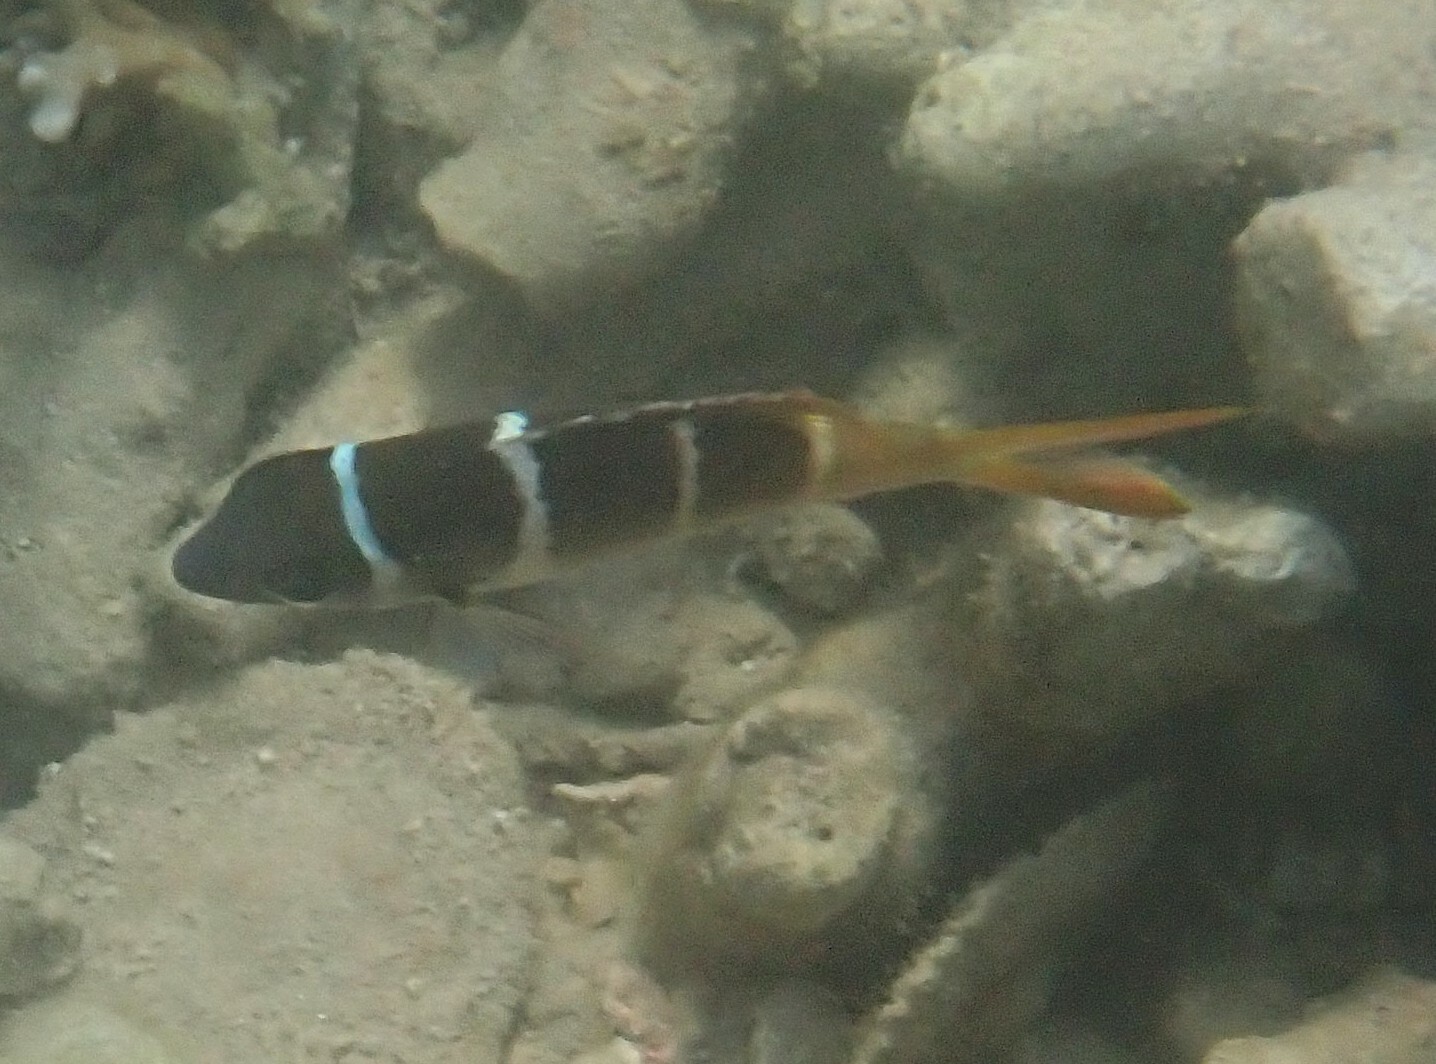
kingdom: Animalia
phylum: Chordata
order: Perciformes
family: Lethrinidae
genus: Monotaxis
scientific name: Monotaxis heterodon
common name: Redfin emperor
